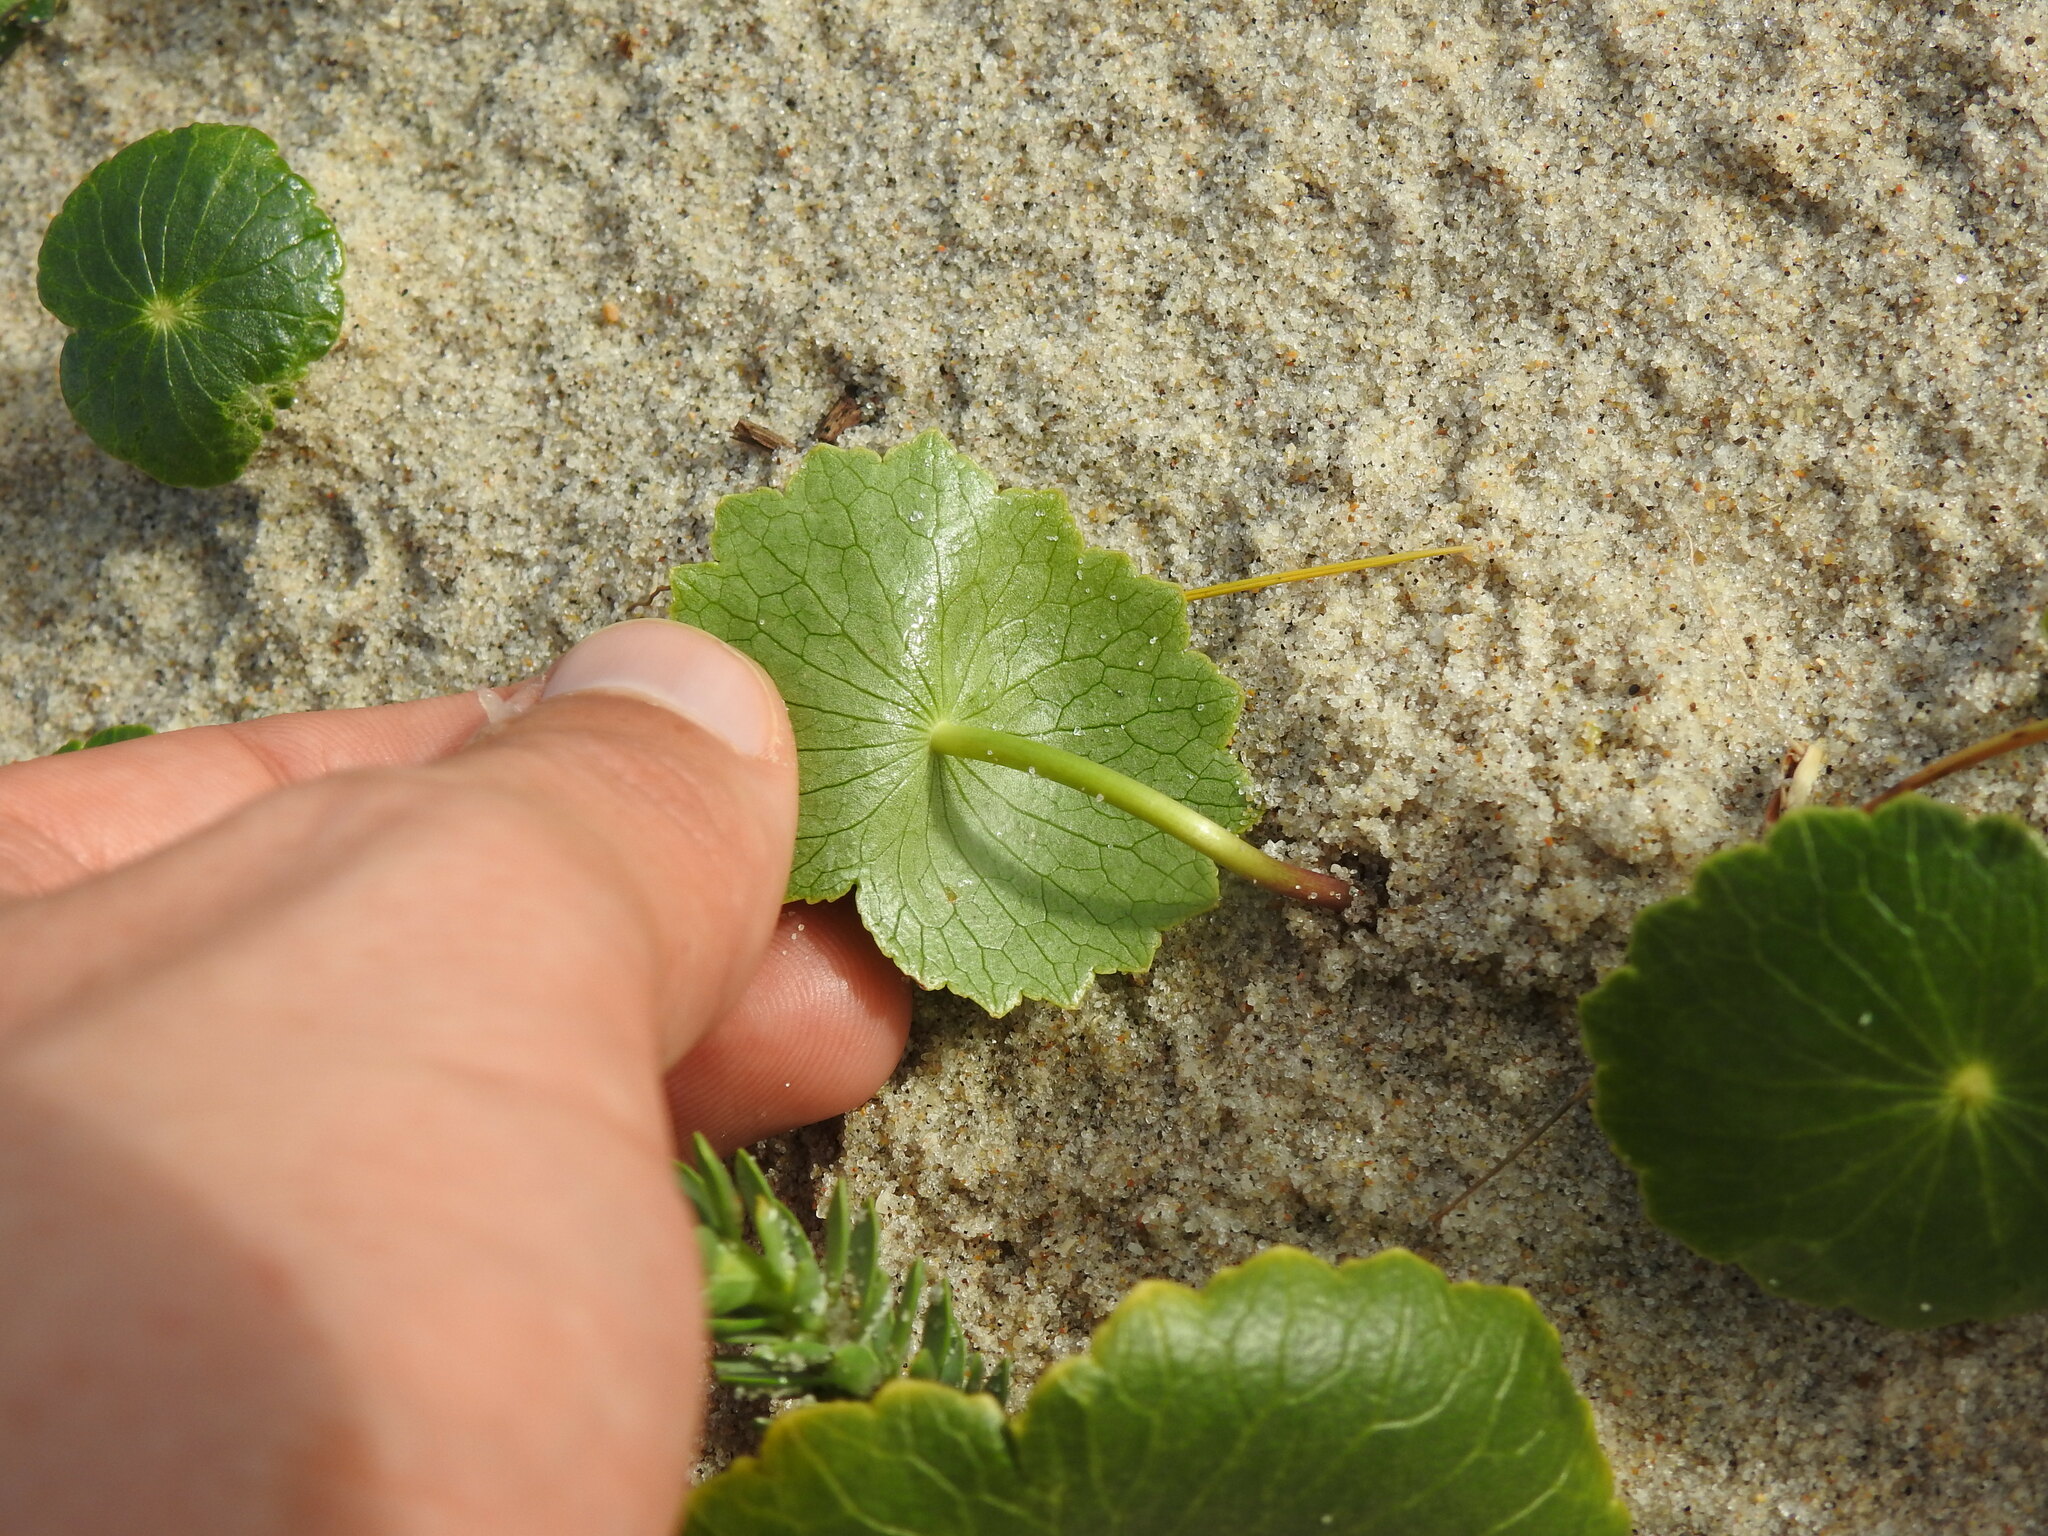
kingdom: Plantae
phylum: Tracheophyta
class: Magnoliopsida
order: Apiales
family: Araliaceae
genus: Hydrocotyle
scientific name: Hydrocotyle bonariensis
